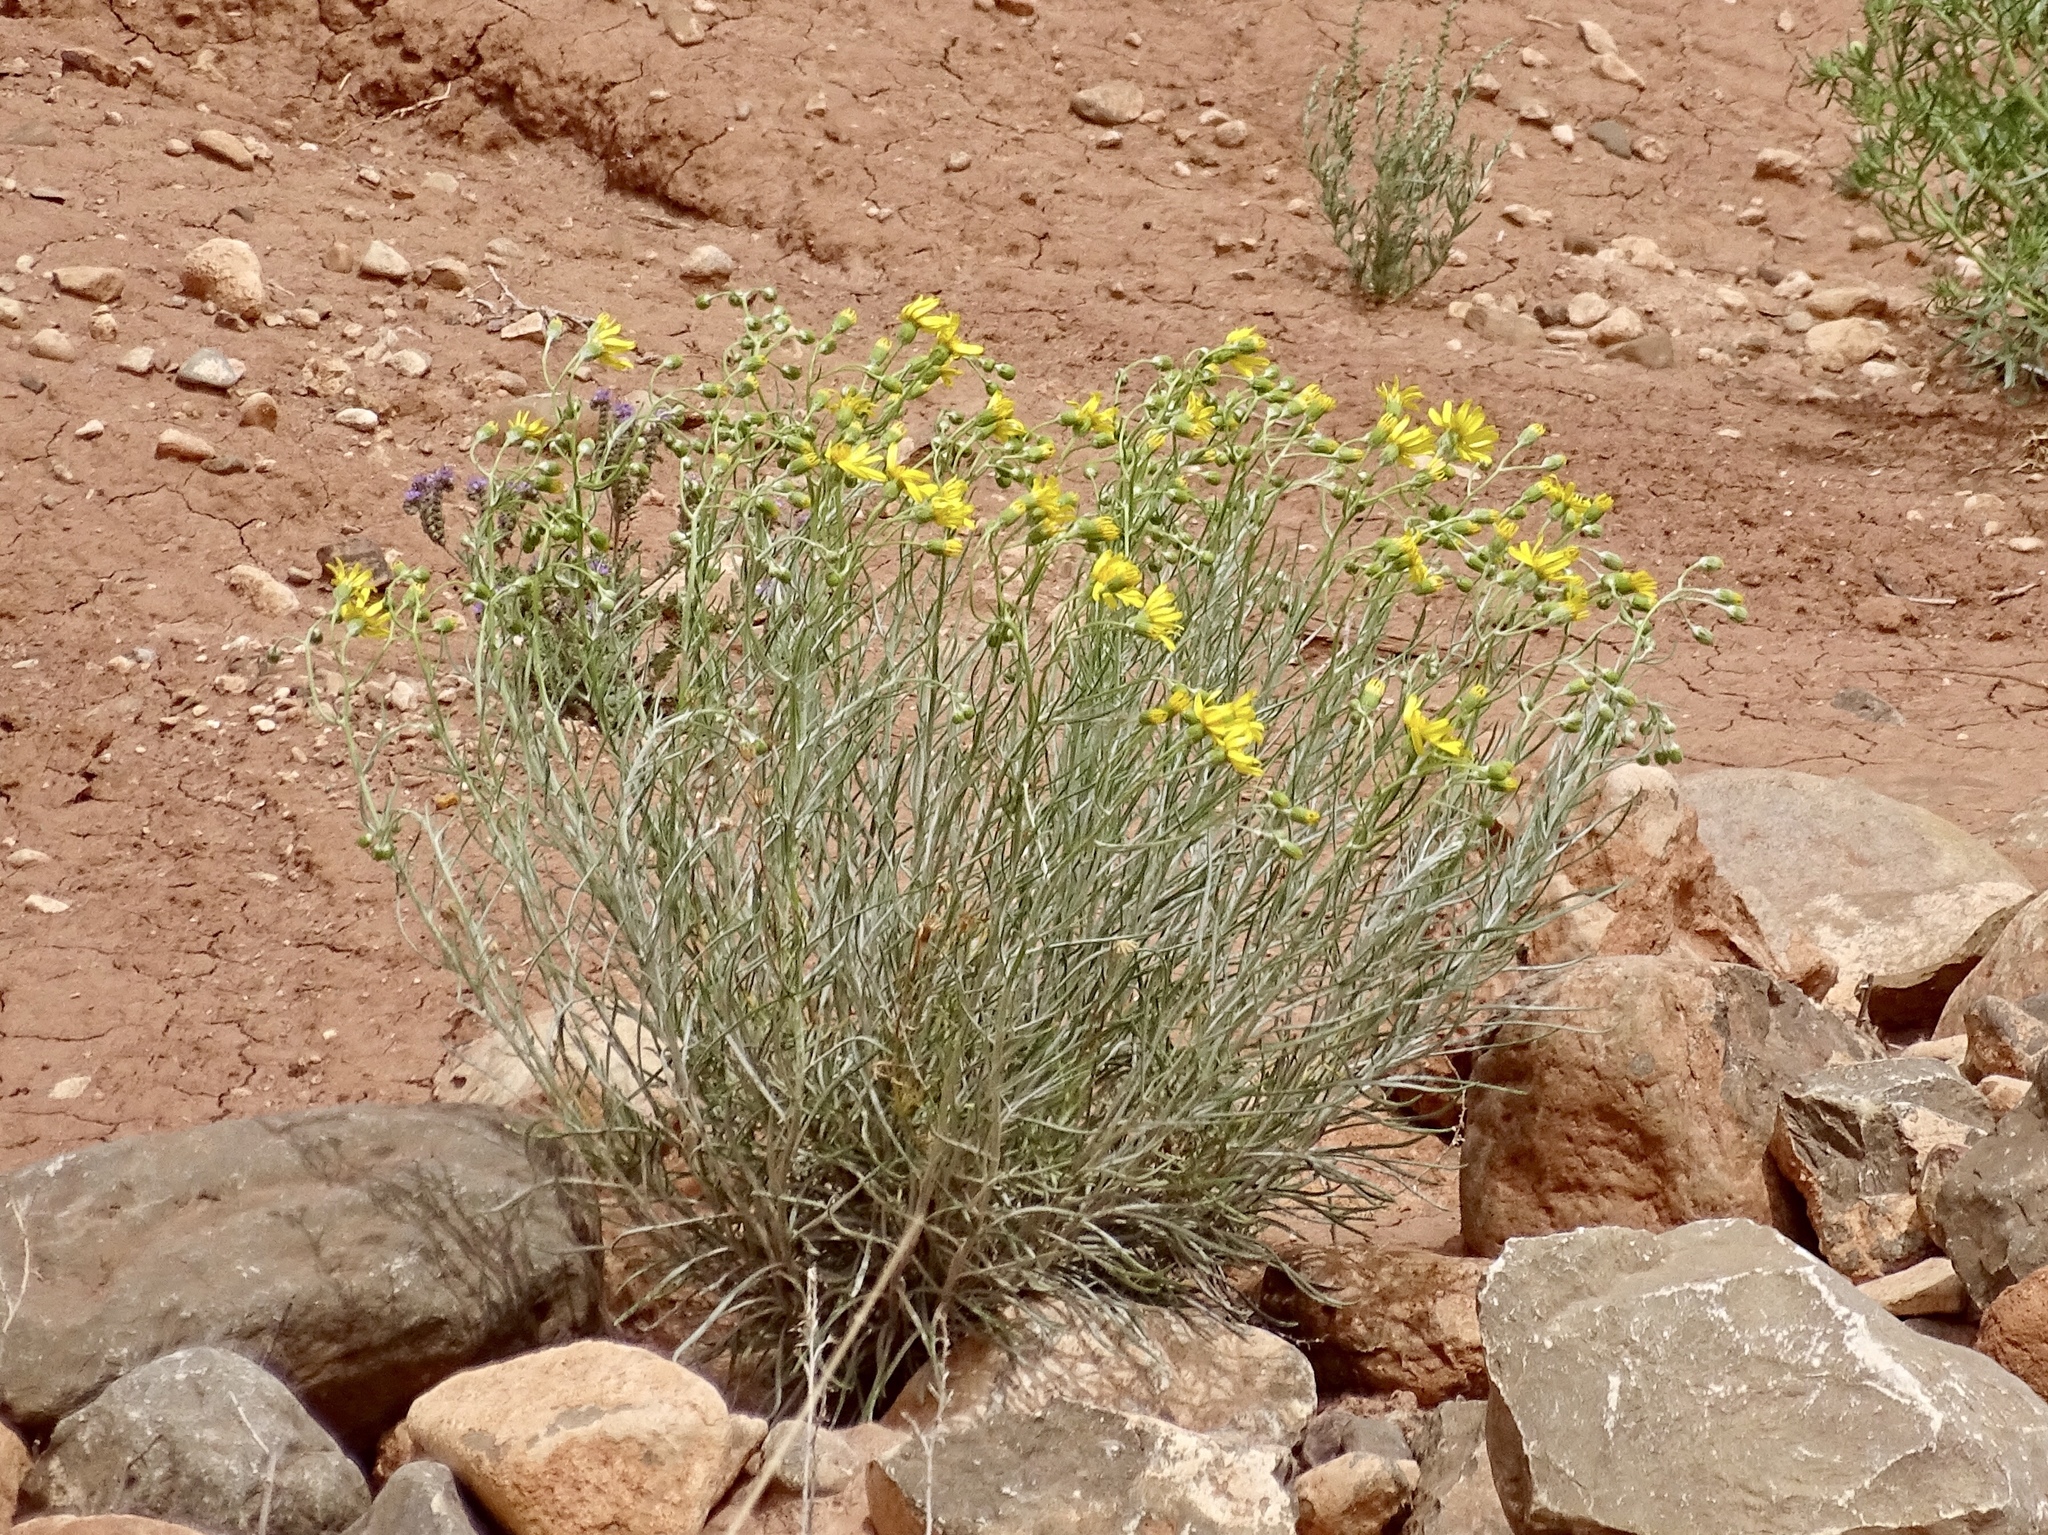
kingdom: Plantae
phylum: Tracheophyta
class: Magnoliopsida
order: Asterales
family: Asteraceae
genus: Senecio
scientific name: Senecio flaccidus
